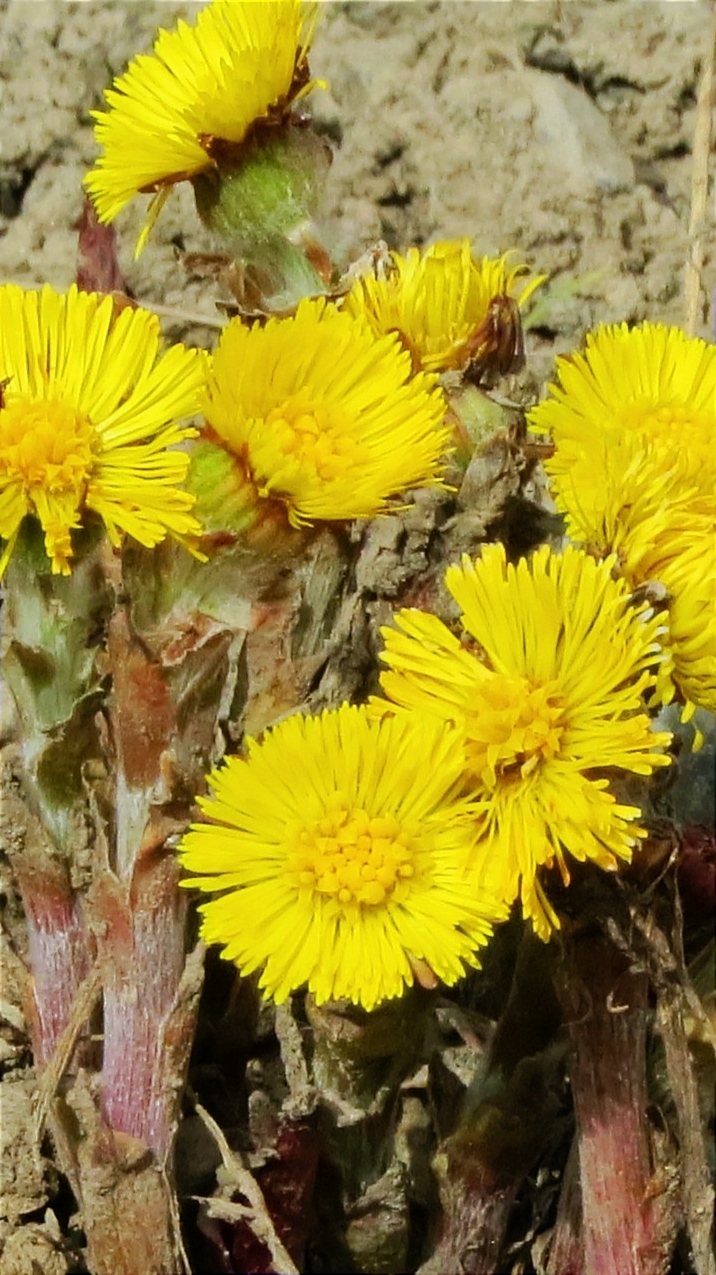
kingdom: Plantae
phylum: Tracheophyta
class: Magnoliopsida
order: Asterales
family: Asteraceae
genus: Tussilago
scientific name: Tussilago farfara
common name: Coltsfoot
